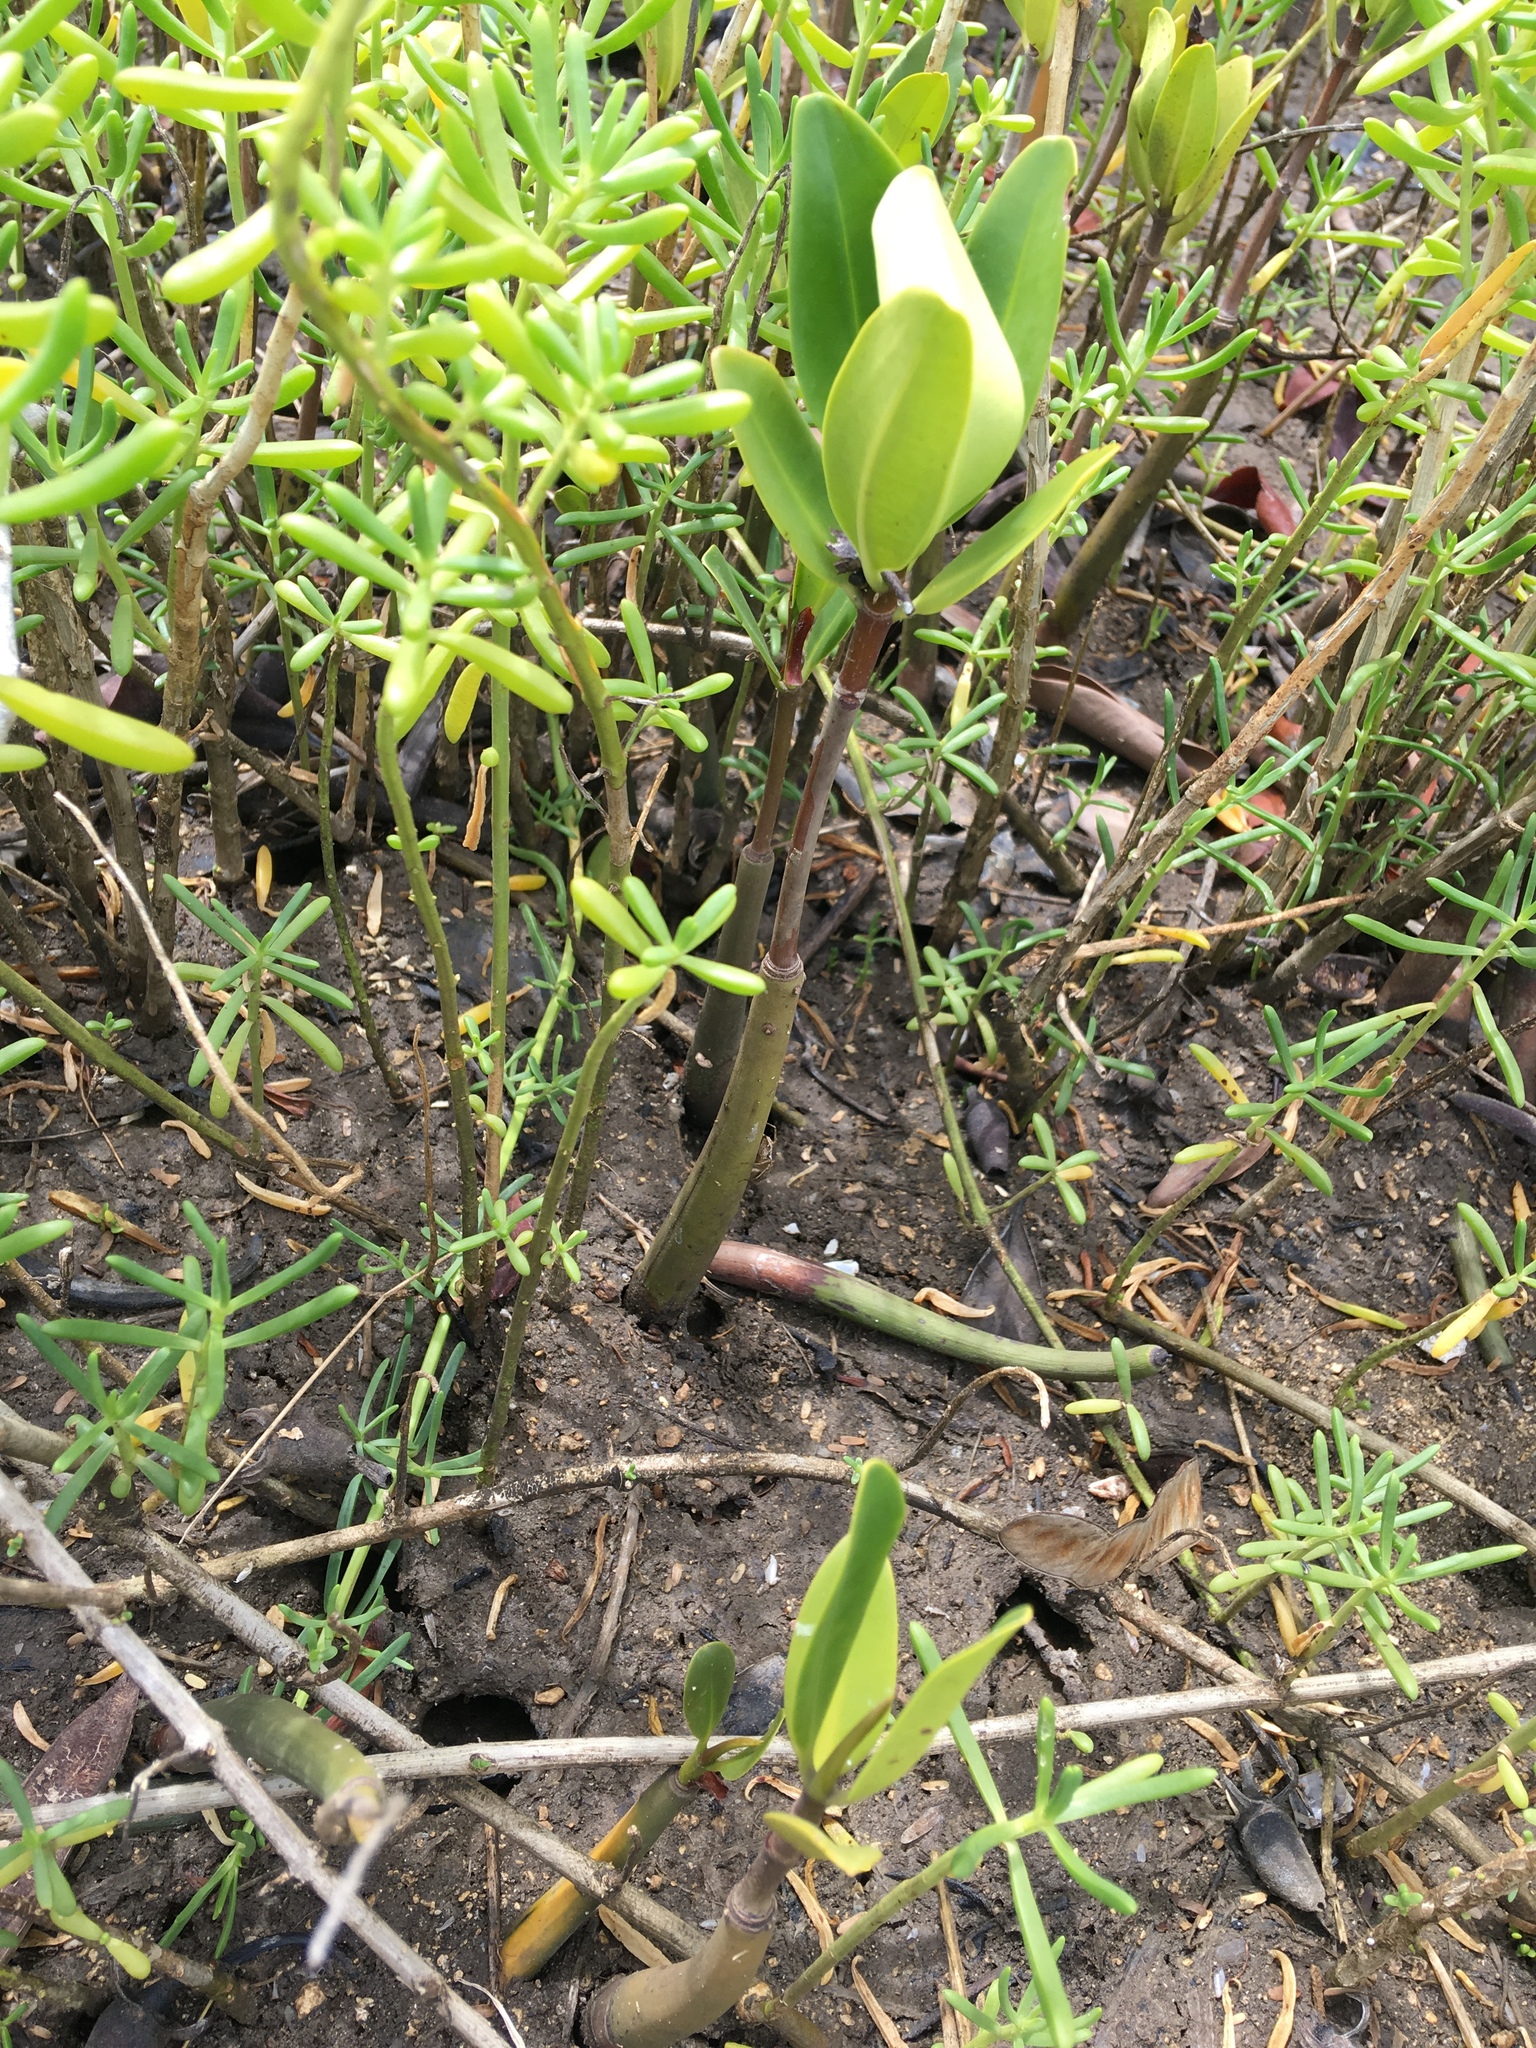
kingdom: Plantae
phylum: Tracheophyta
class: Magnoliopsida
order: Brassicales
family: Bataceae
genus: Batis
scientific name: Batis maritima
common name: Turtleweed
